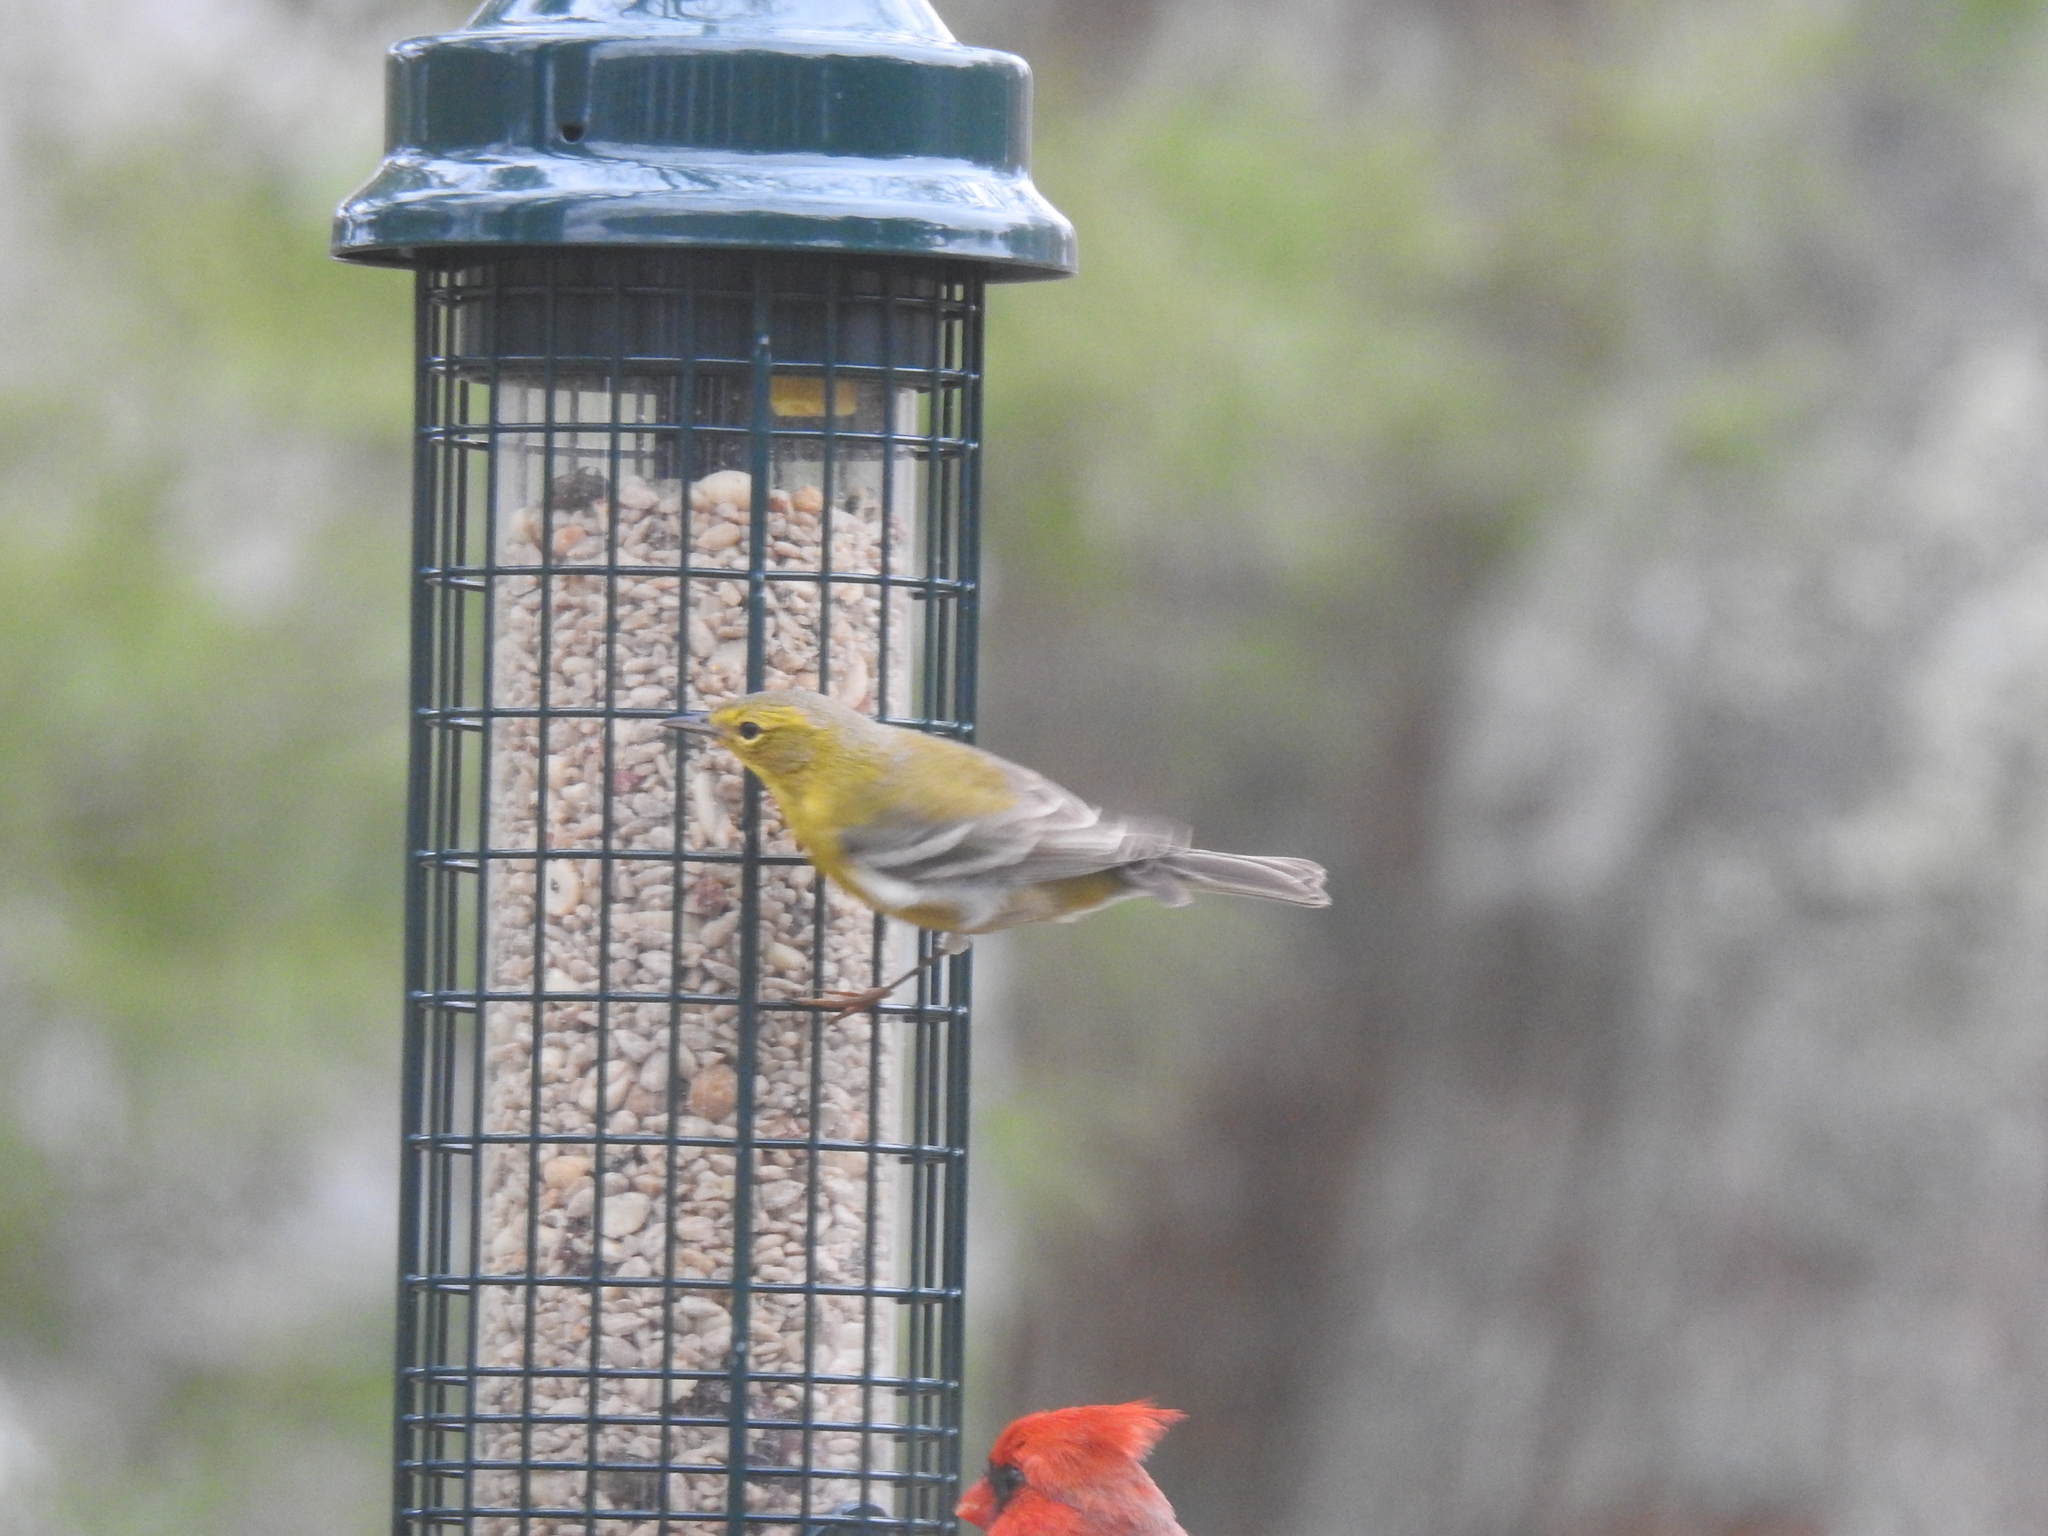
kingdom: Animalia
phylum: Chordata
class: Aves
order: Passeriformes
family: Parulidae
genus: Setophaga
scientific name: Setophaga pinus
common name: Pine warbler
